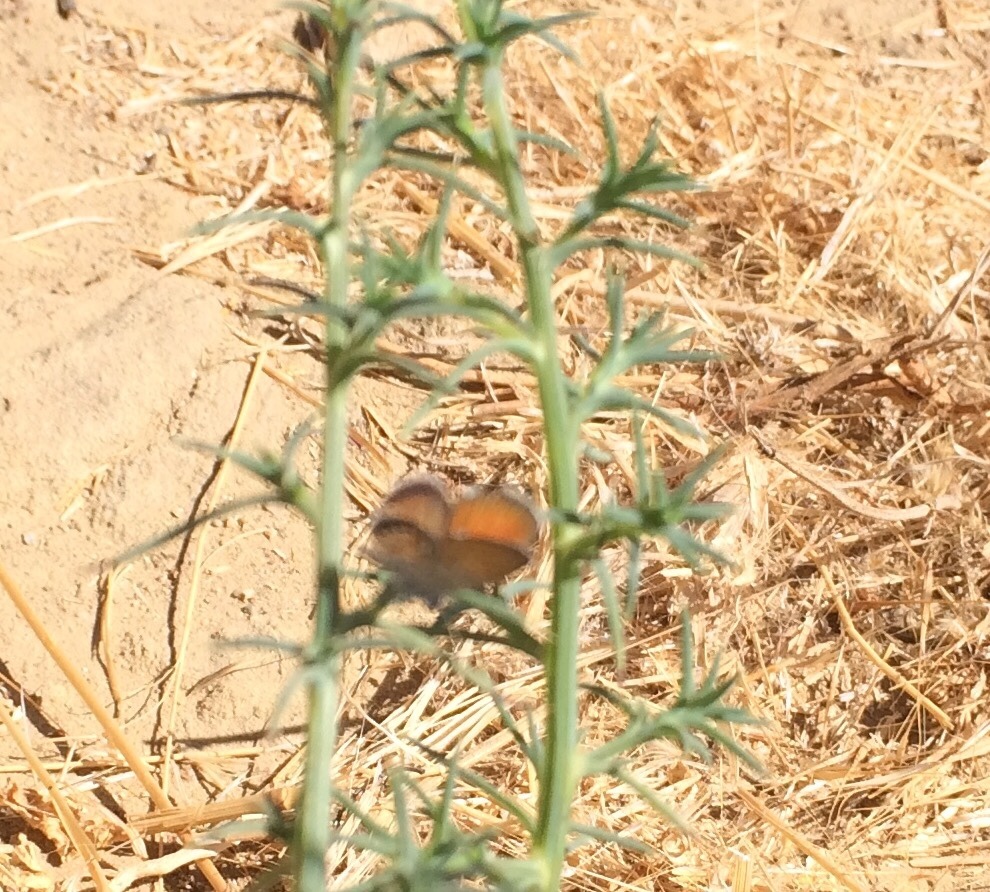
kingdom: Animalia
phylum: Arthropoda
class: Insecta
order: Lepidoptera
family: Lycaenidae
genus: Brephidium
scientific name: Brephidium exilis
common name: Pygmy blue
